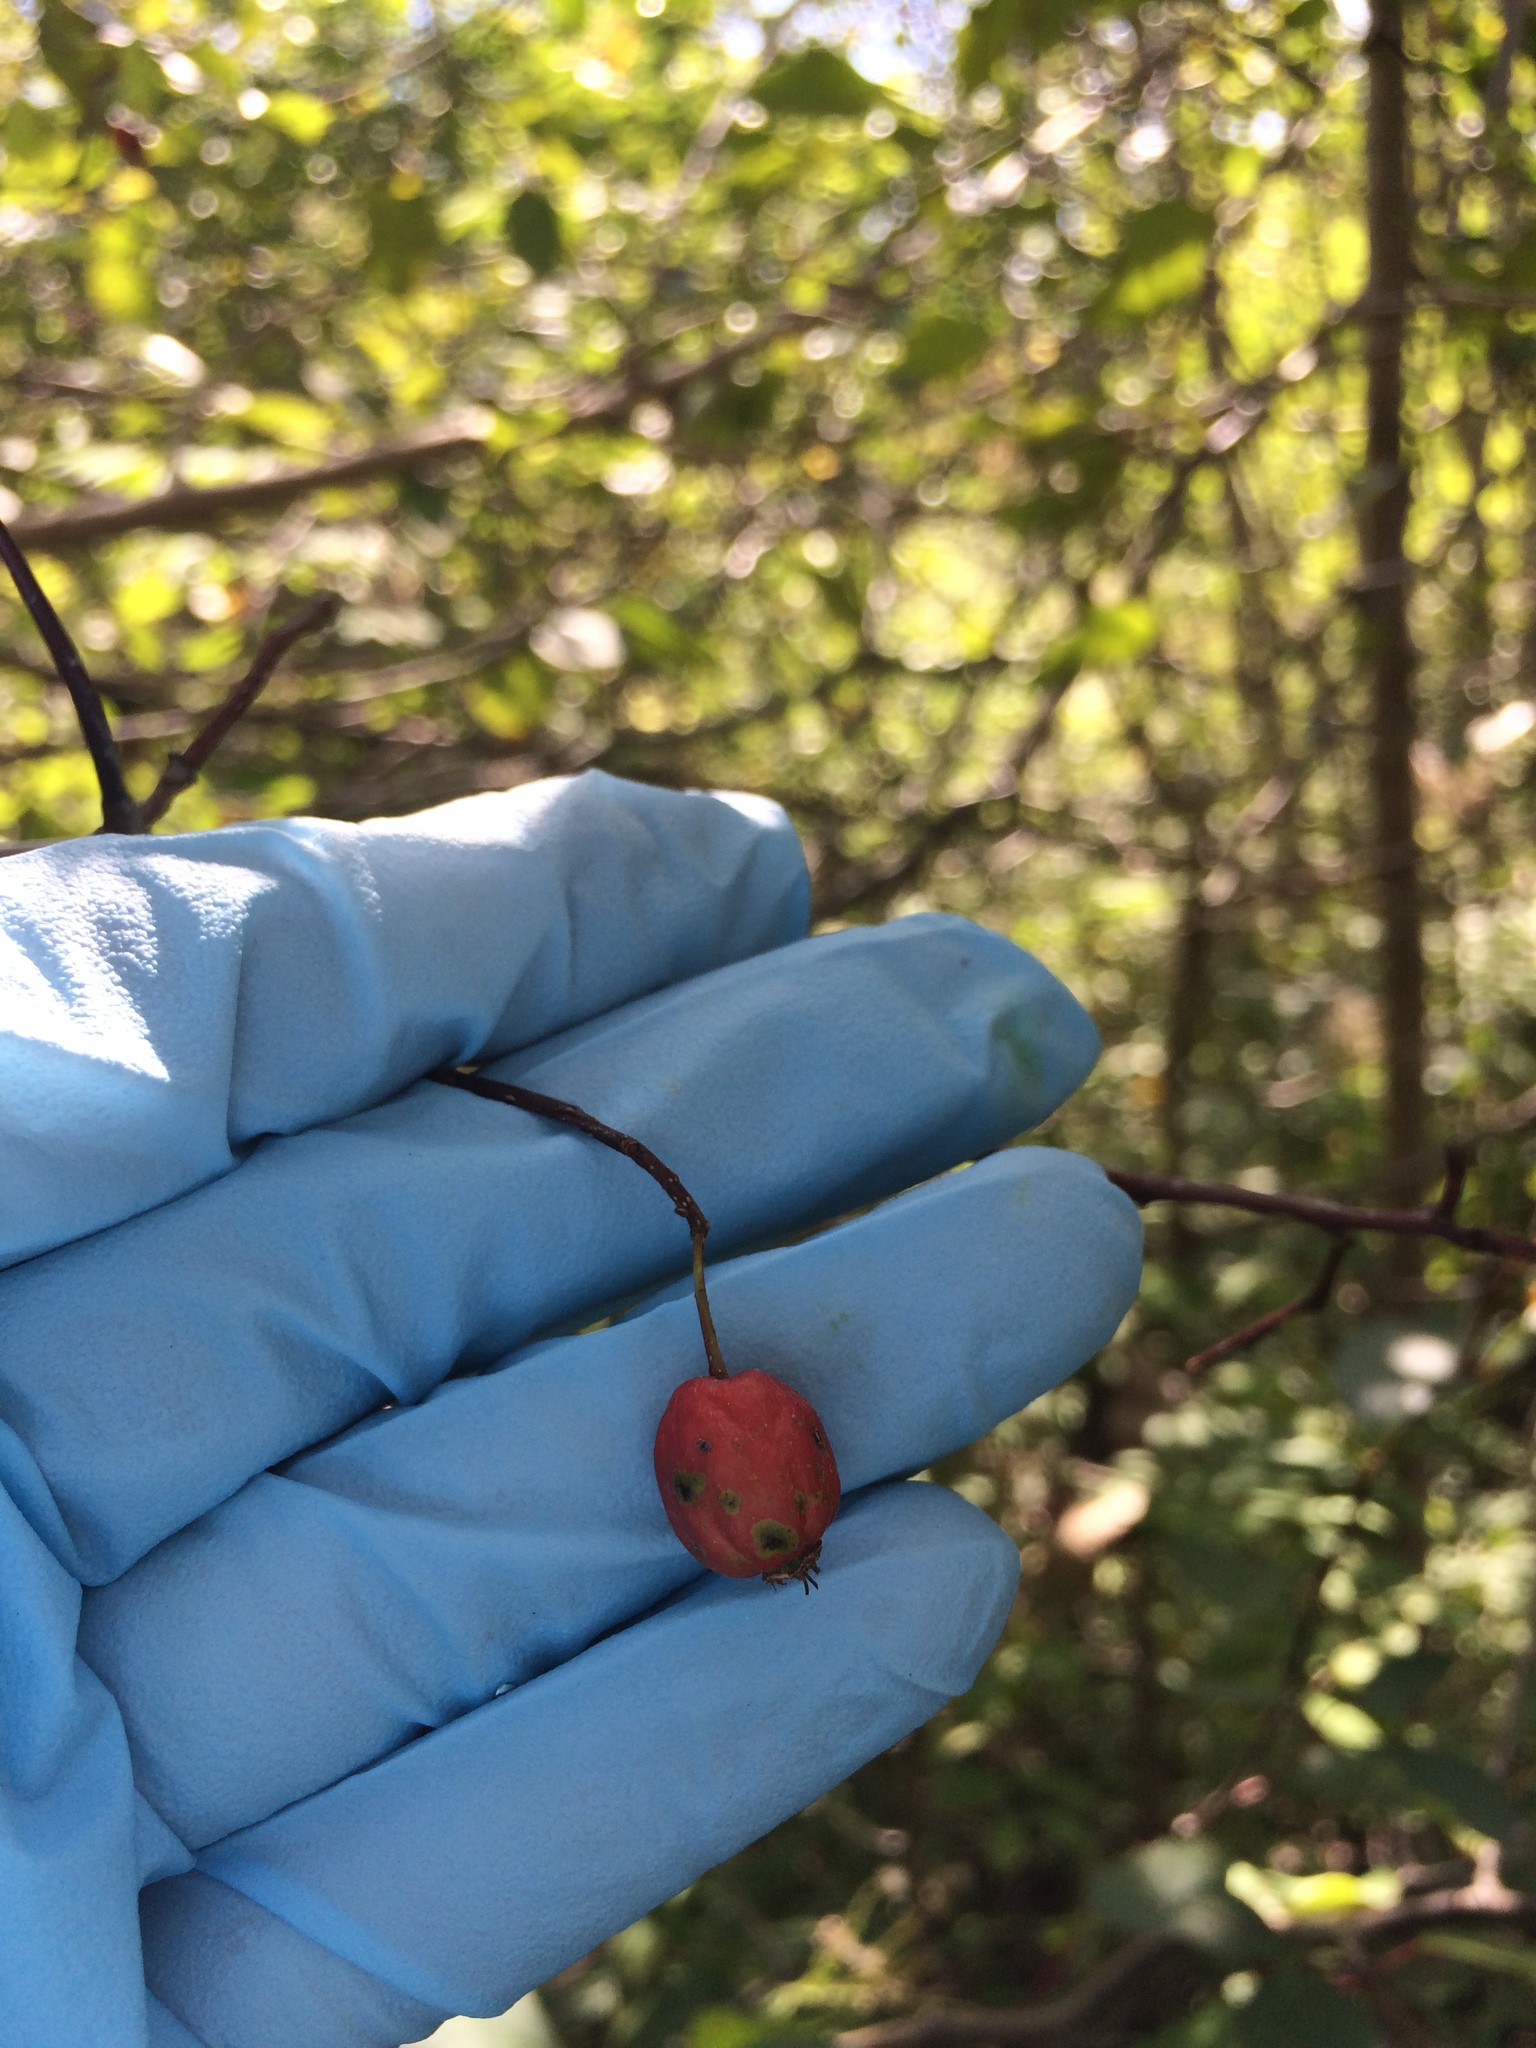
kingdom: Plantae
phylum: Tracheophyta
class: Magnoliopsida
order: Rosales
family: Rosaceae
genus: Crataegus
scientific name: Crataegus chrysocarpa
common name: Fire-berry hawthorn
